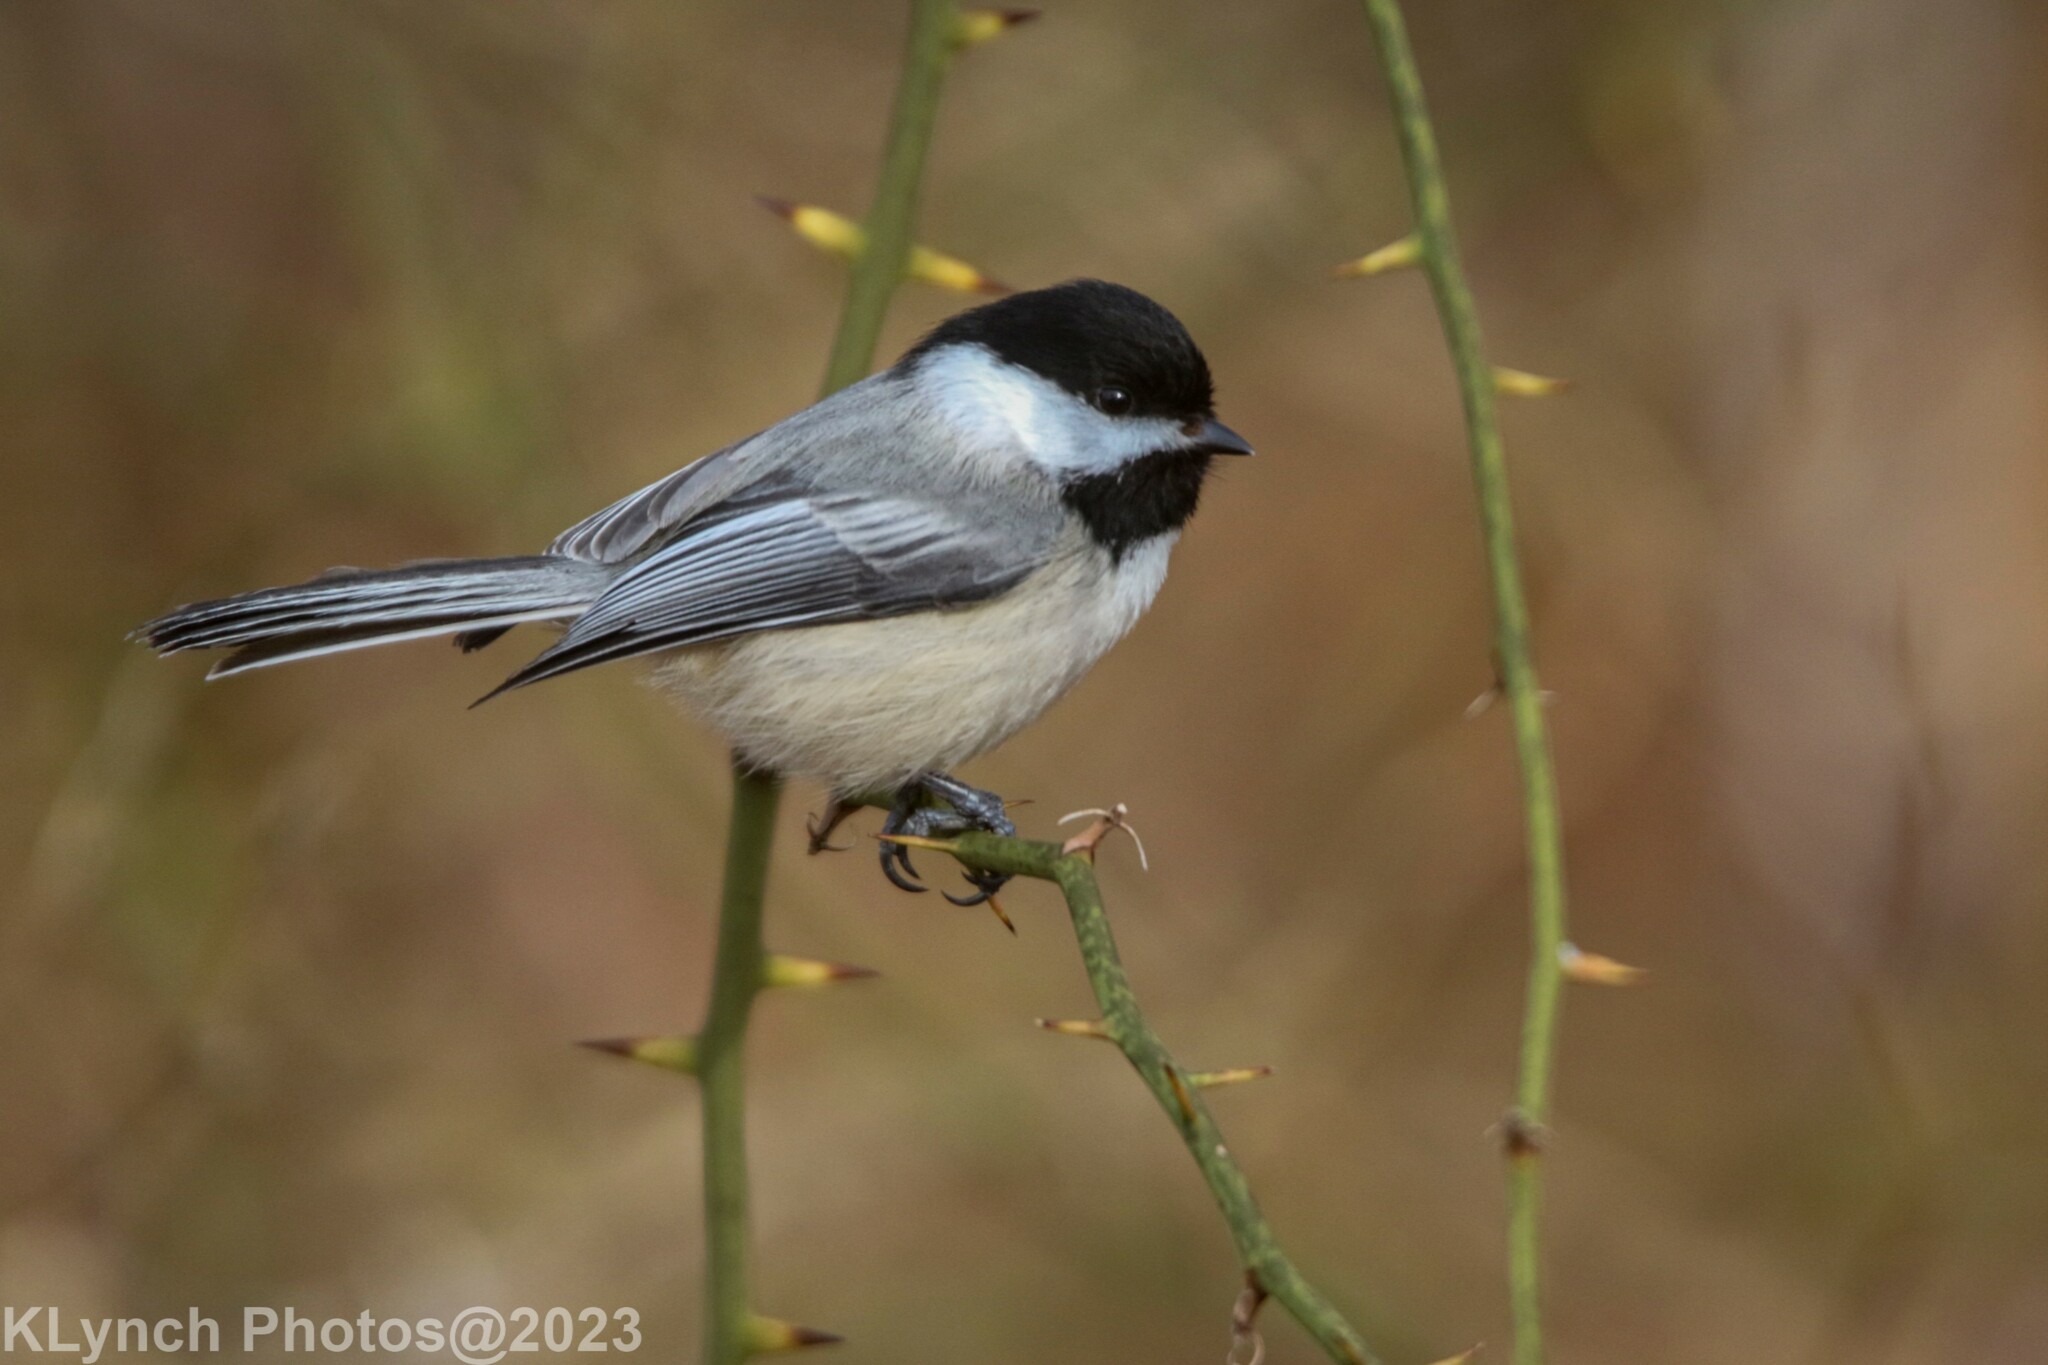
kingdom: Animalia
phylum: Chordata
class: Aves
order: Passeriformes
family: Paridae
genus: Poecile
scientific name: Poecile atricapillus
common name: Black-capped chickadee
